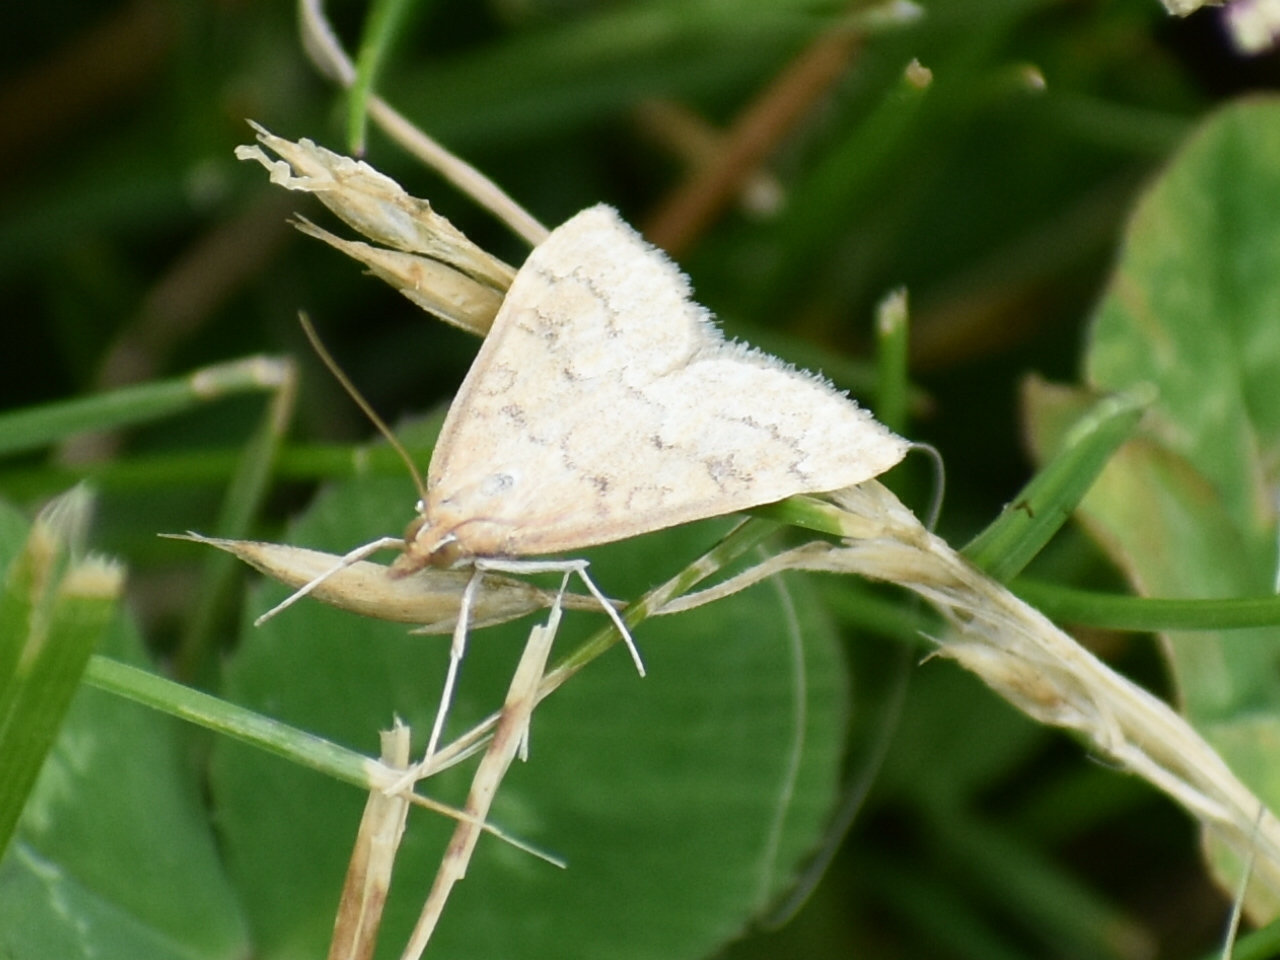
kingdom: Animalia
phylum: Arthropoda
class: Insecta
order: Lepidoptera
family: Crambidae
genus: Udea
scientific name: Udea rubigalis
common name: Celery leaftier moth
